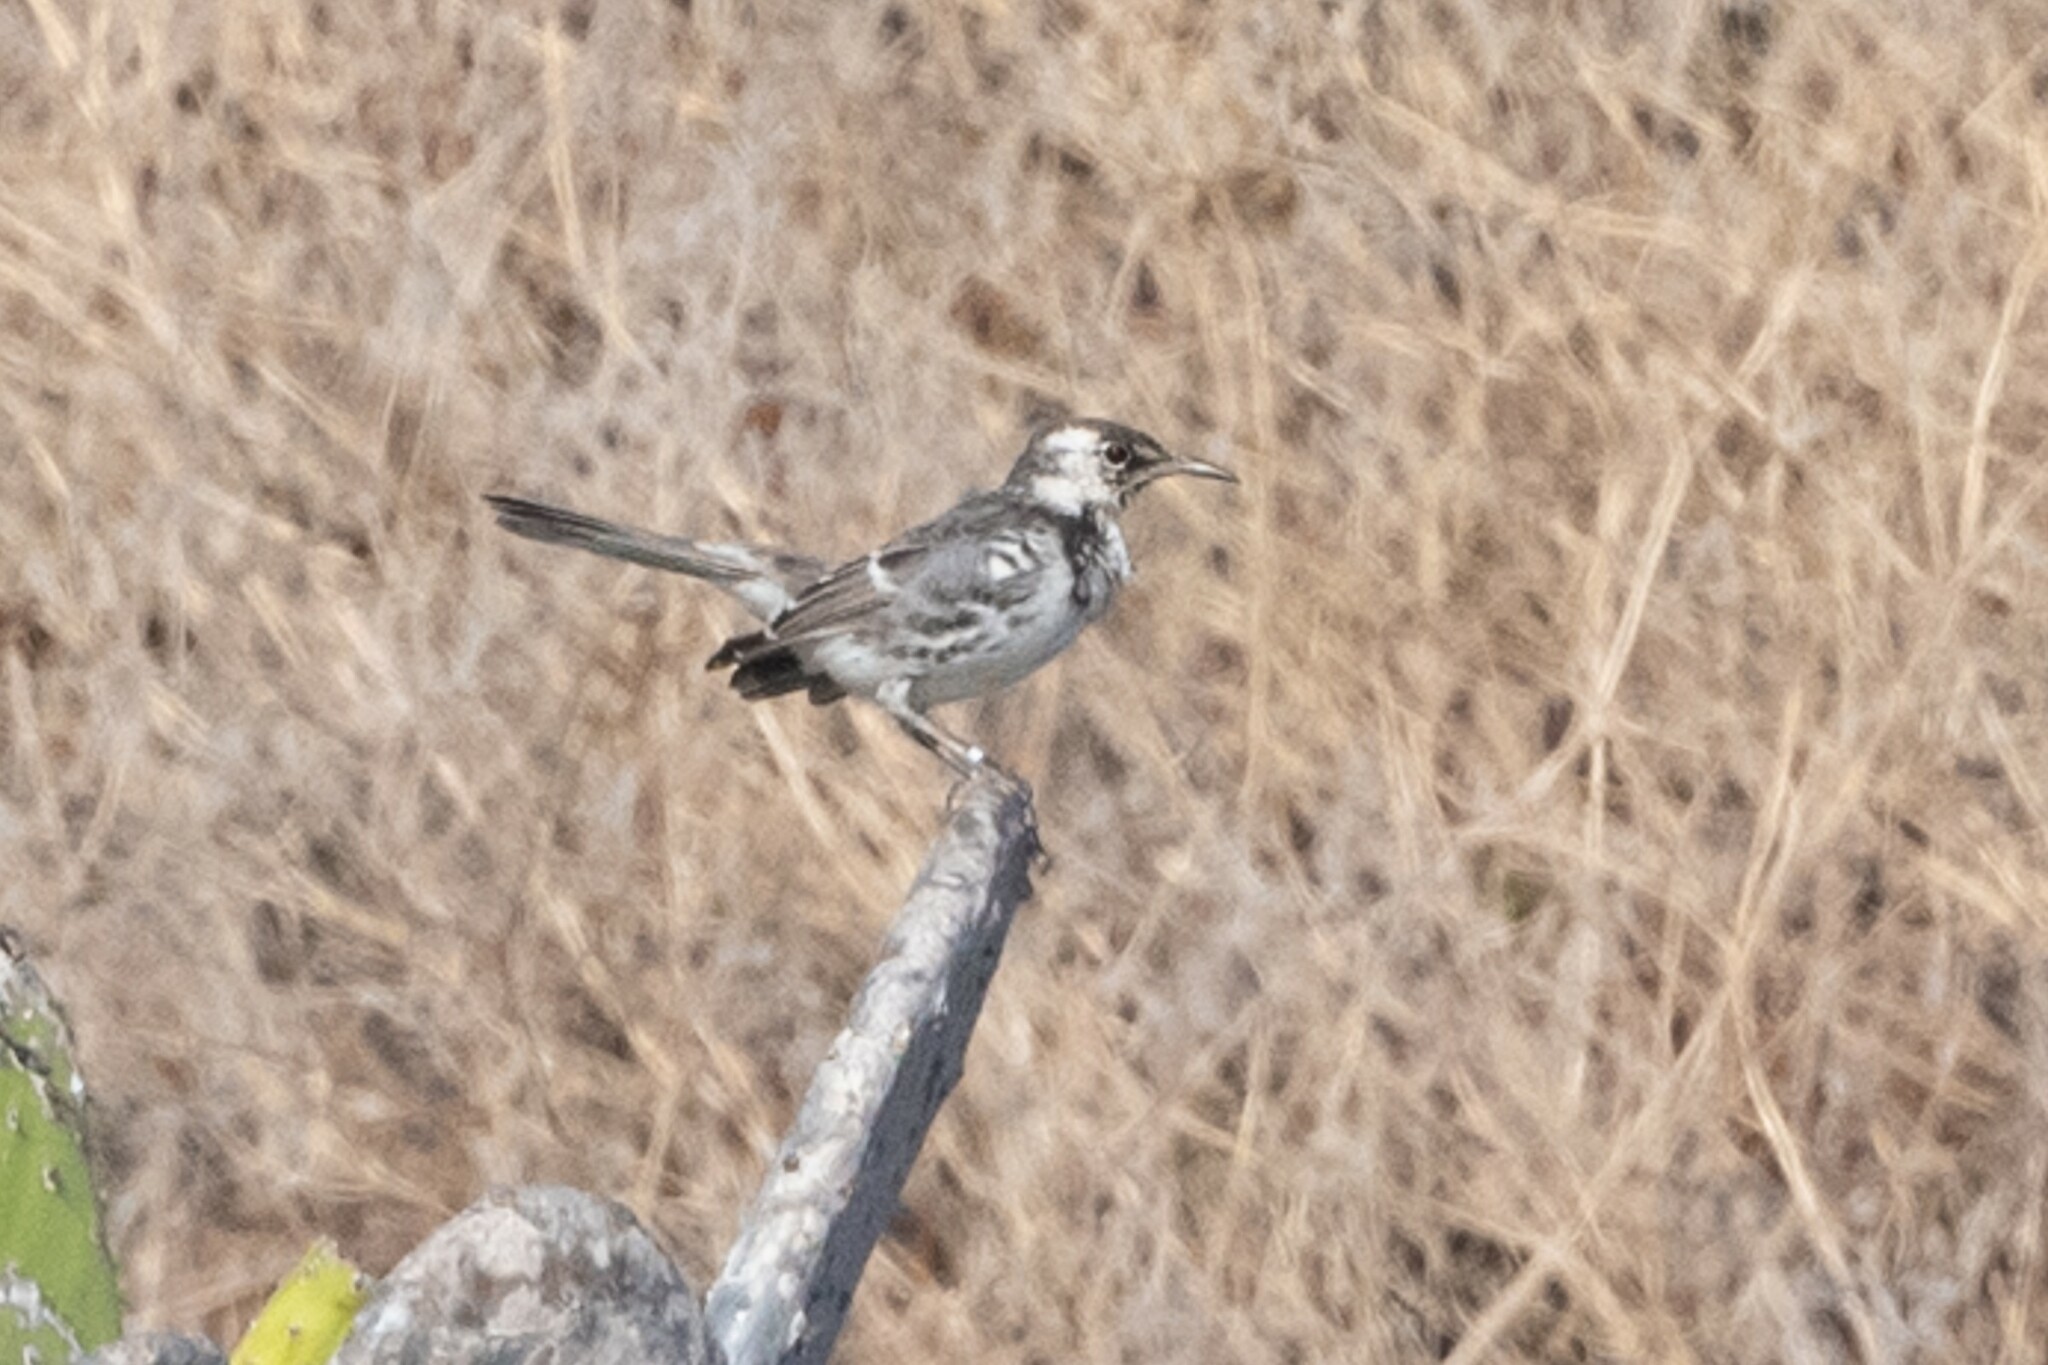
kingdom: Animalia
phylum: Chordata
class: Aves
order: Passeriformes
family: Mimidae
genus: Mimus
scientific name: Mimus trifasciatus
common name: Floreana mockingbird
